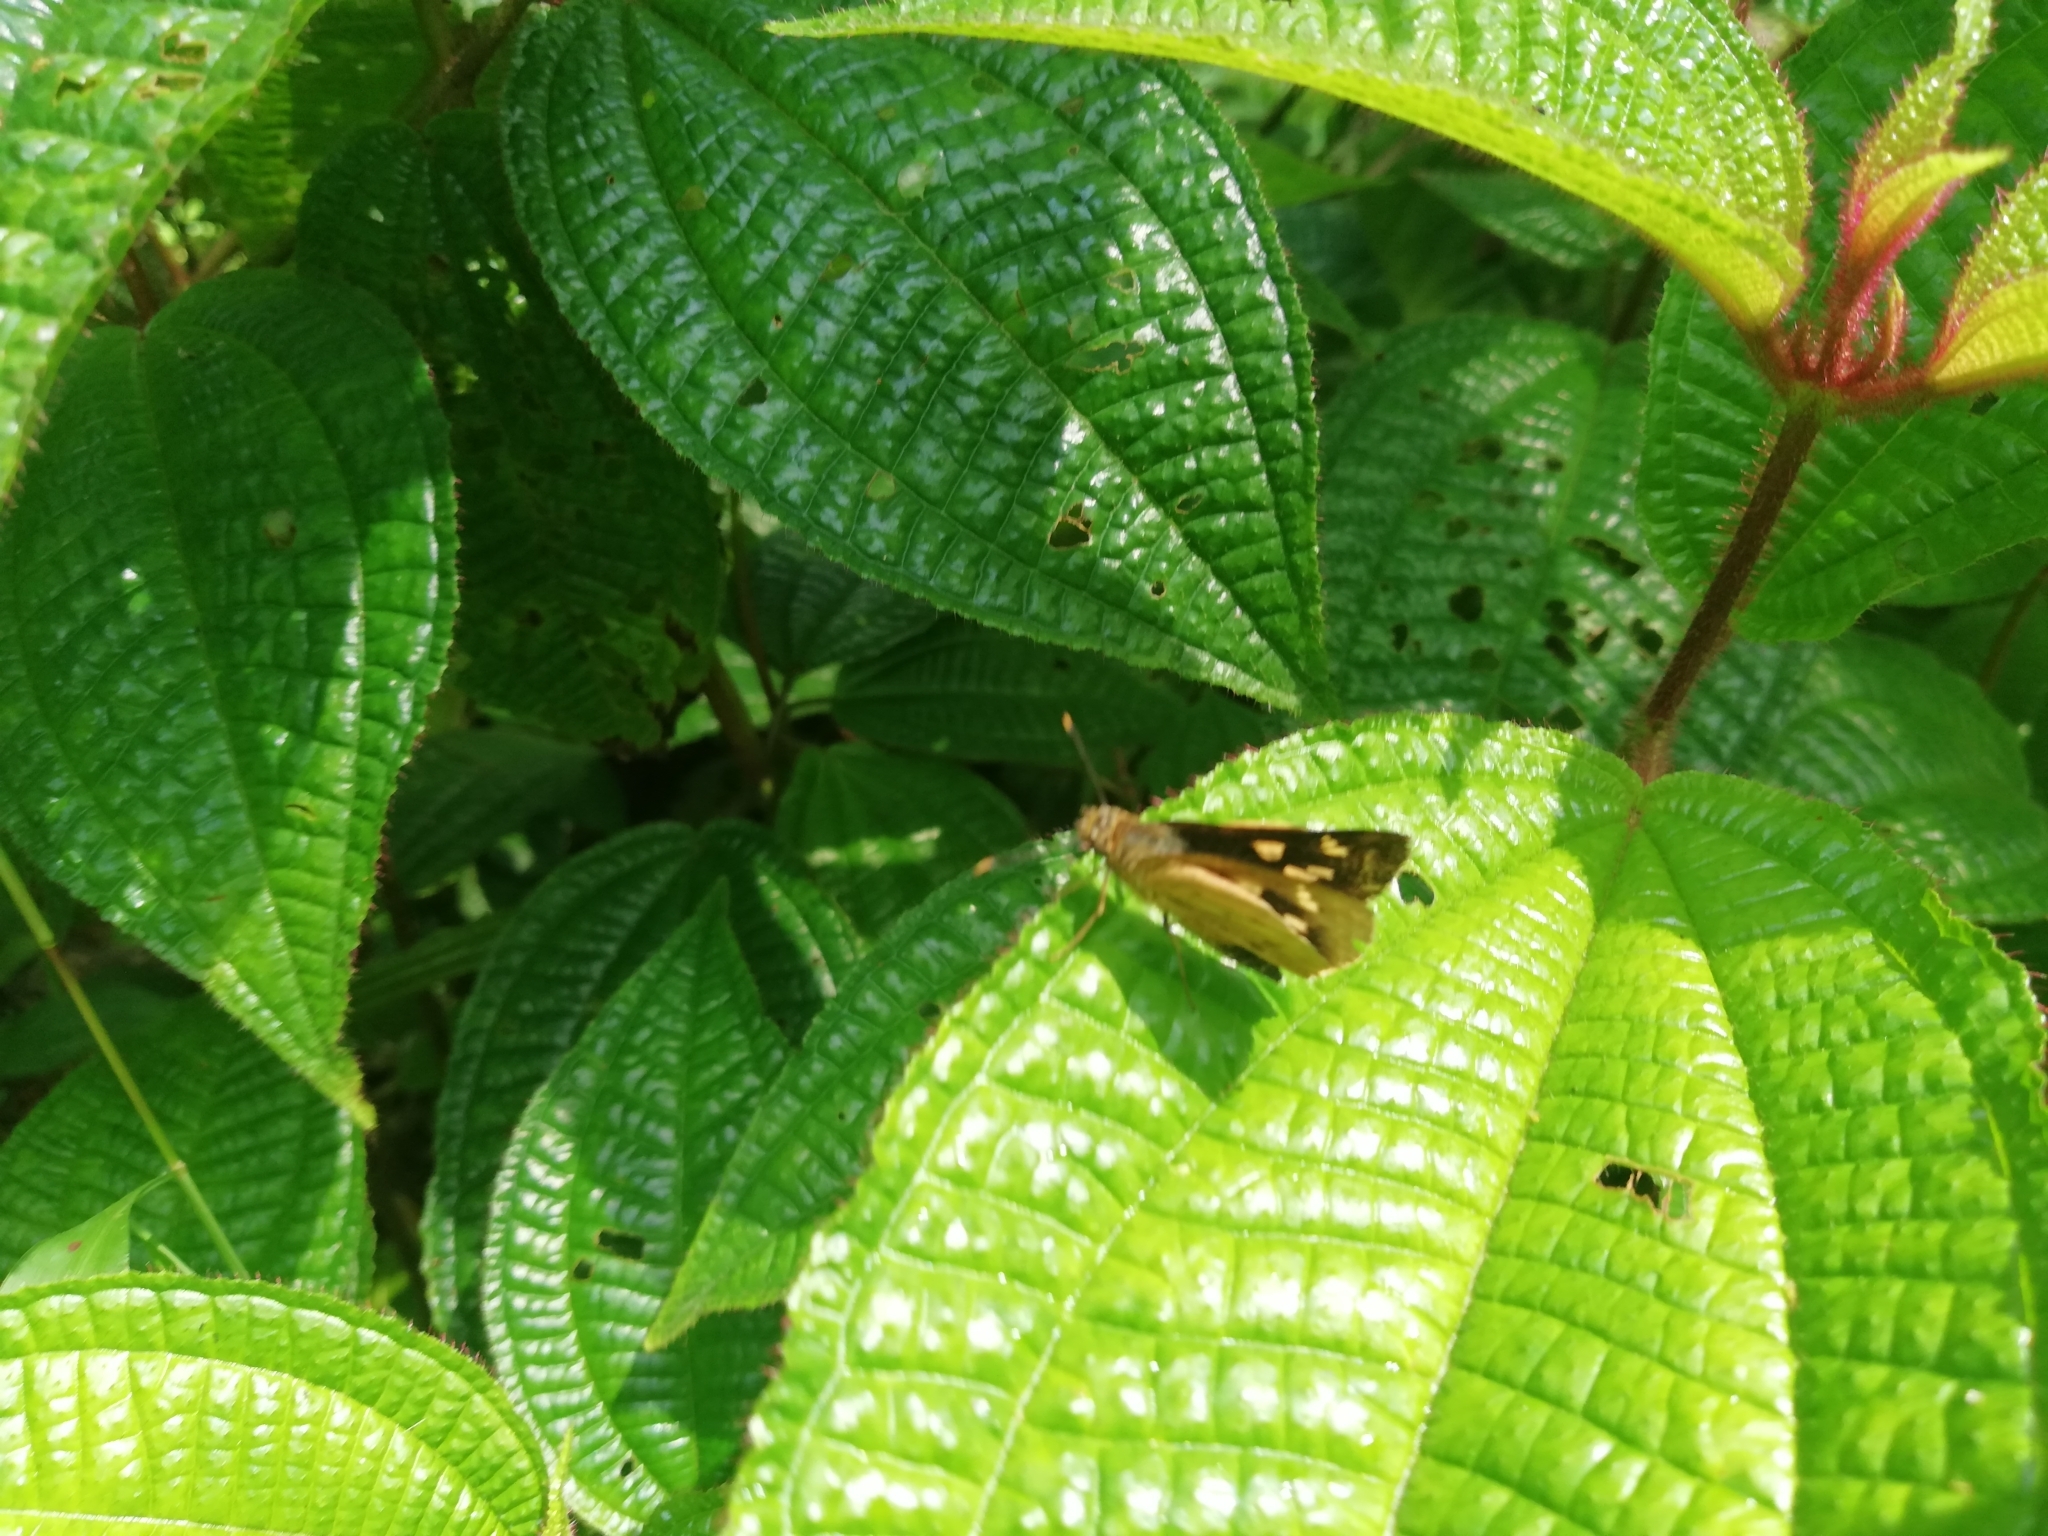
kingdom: Animalia
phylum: Arthropoda
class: Insecta
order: Lepidoptera
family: Hesperiidae
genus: Thoressa
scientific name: Thoressa honorei
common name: Madras ace
